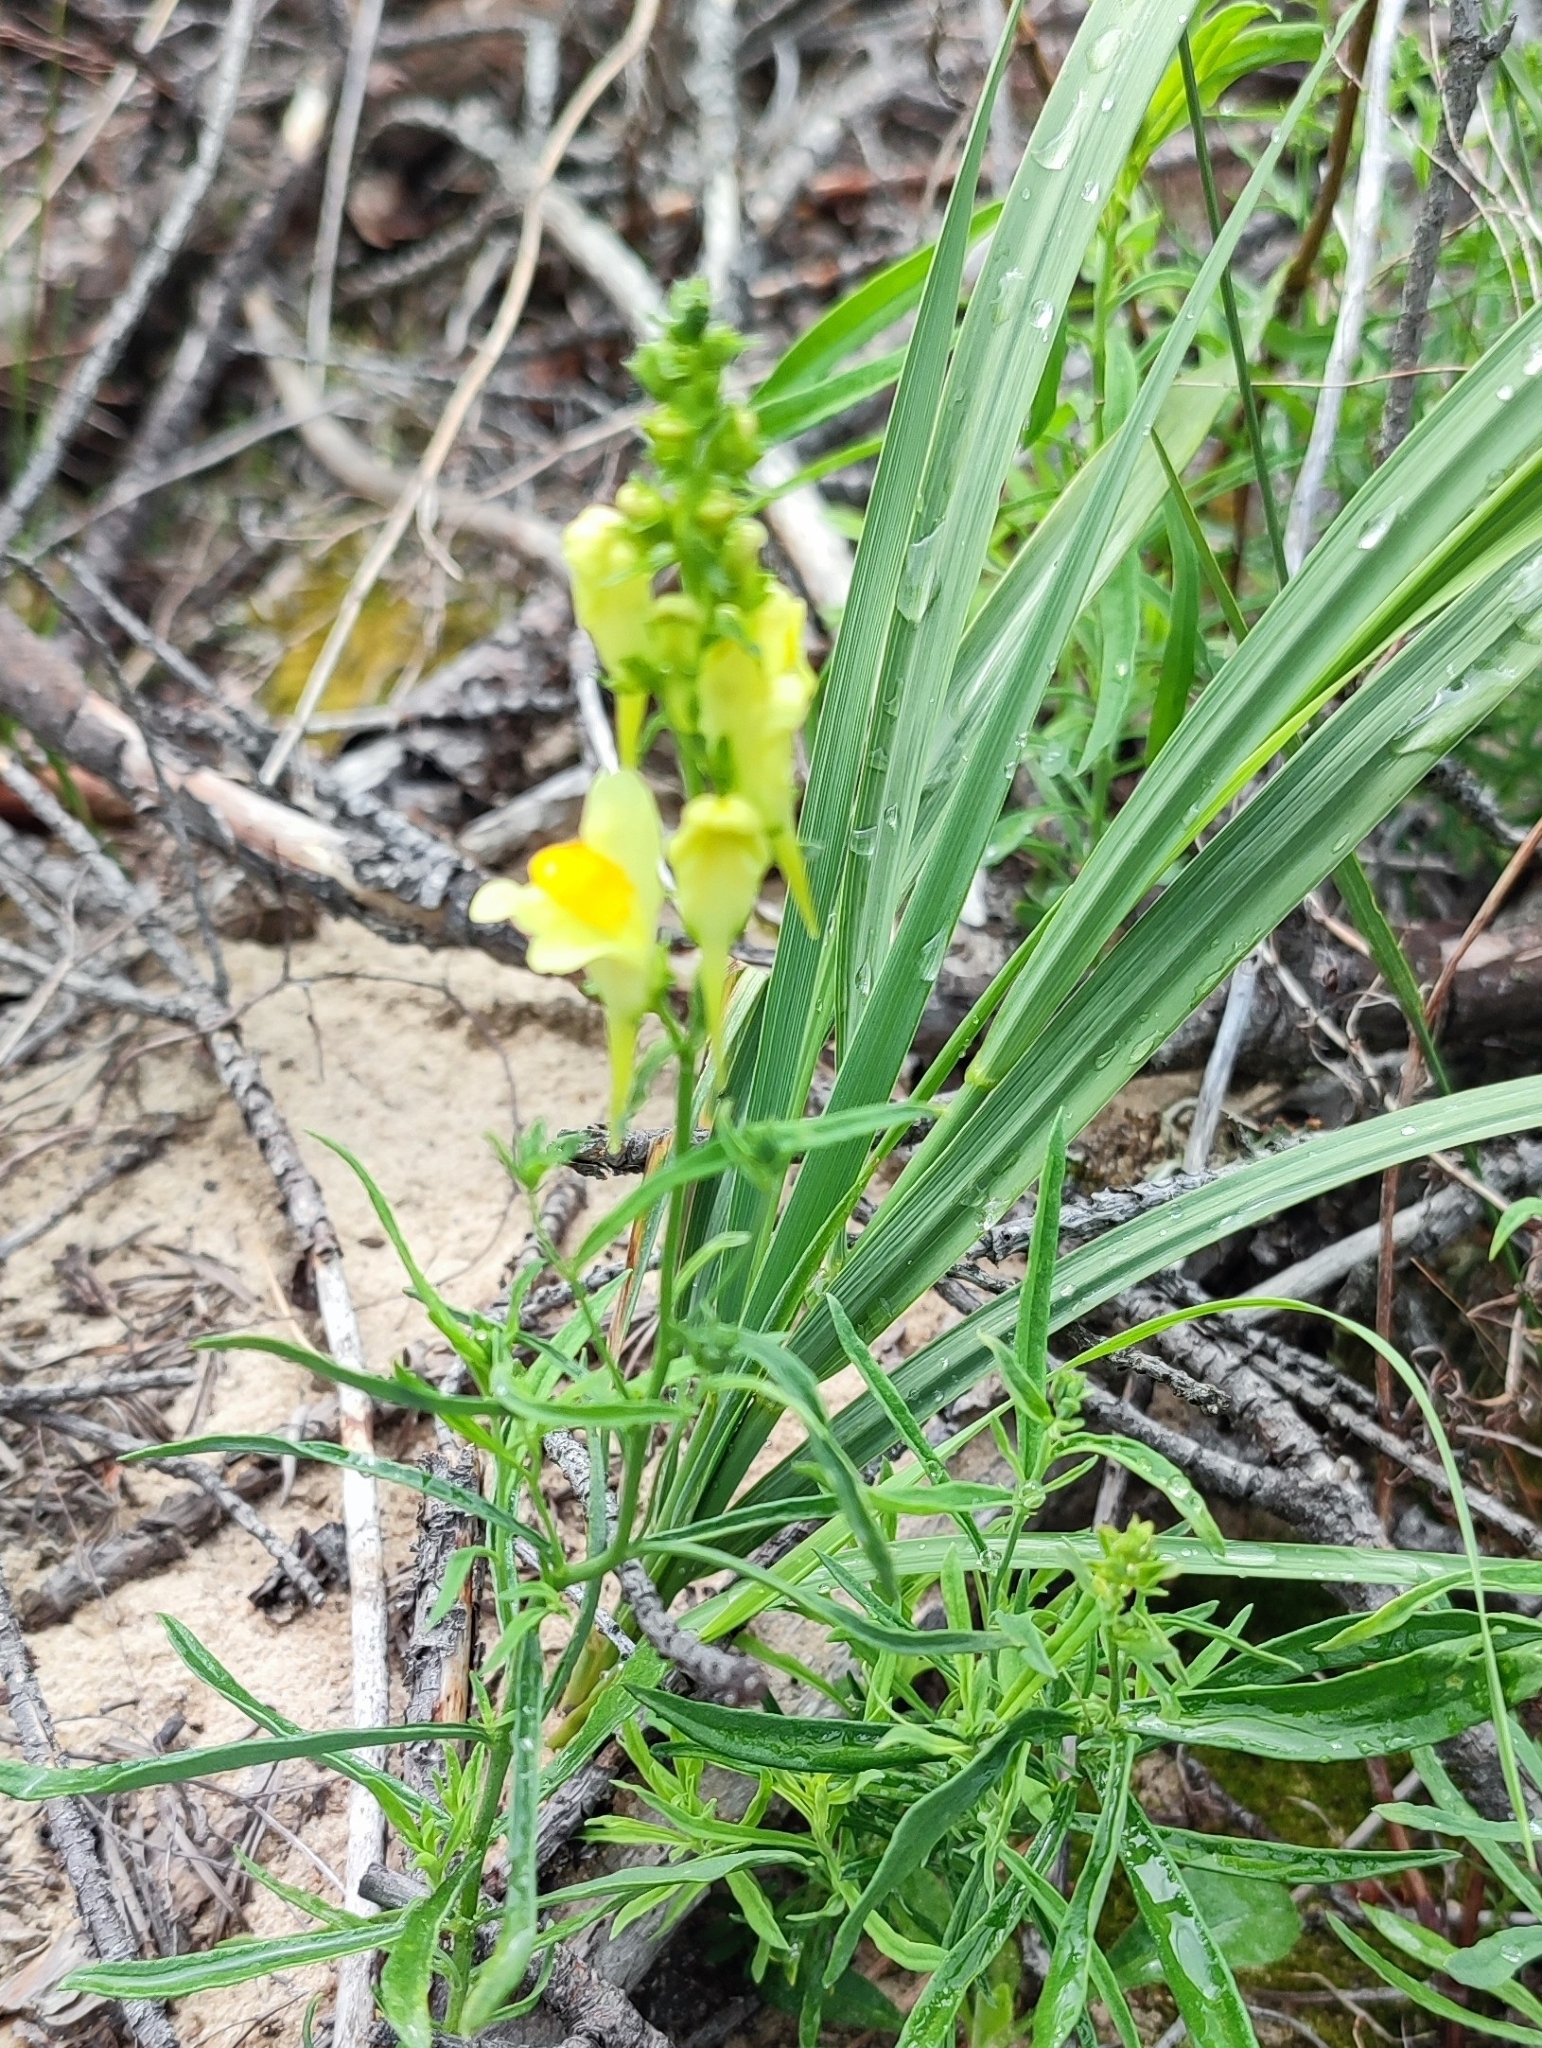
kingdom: Plantae
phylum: Tracheophyta
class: Magnoliopsida
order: Lamiales
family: Plantaginaceae
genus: Linaria
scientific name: Linaria vulgaris
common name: Butter and eggs
